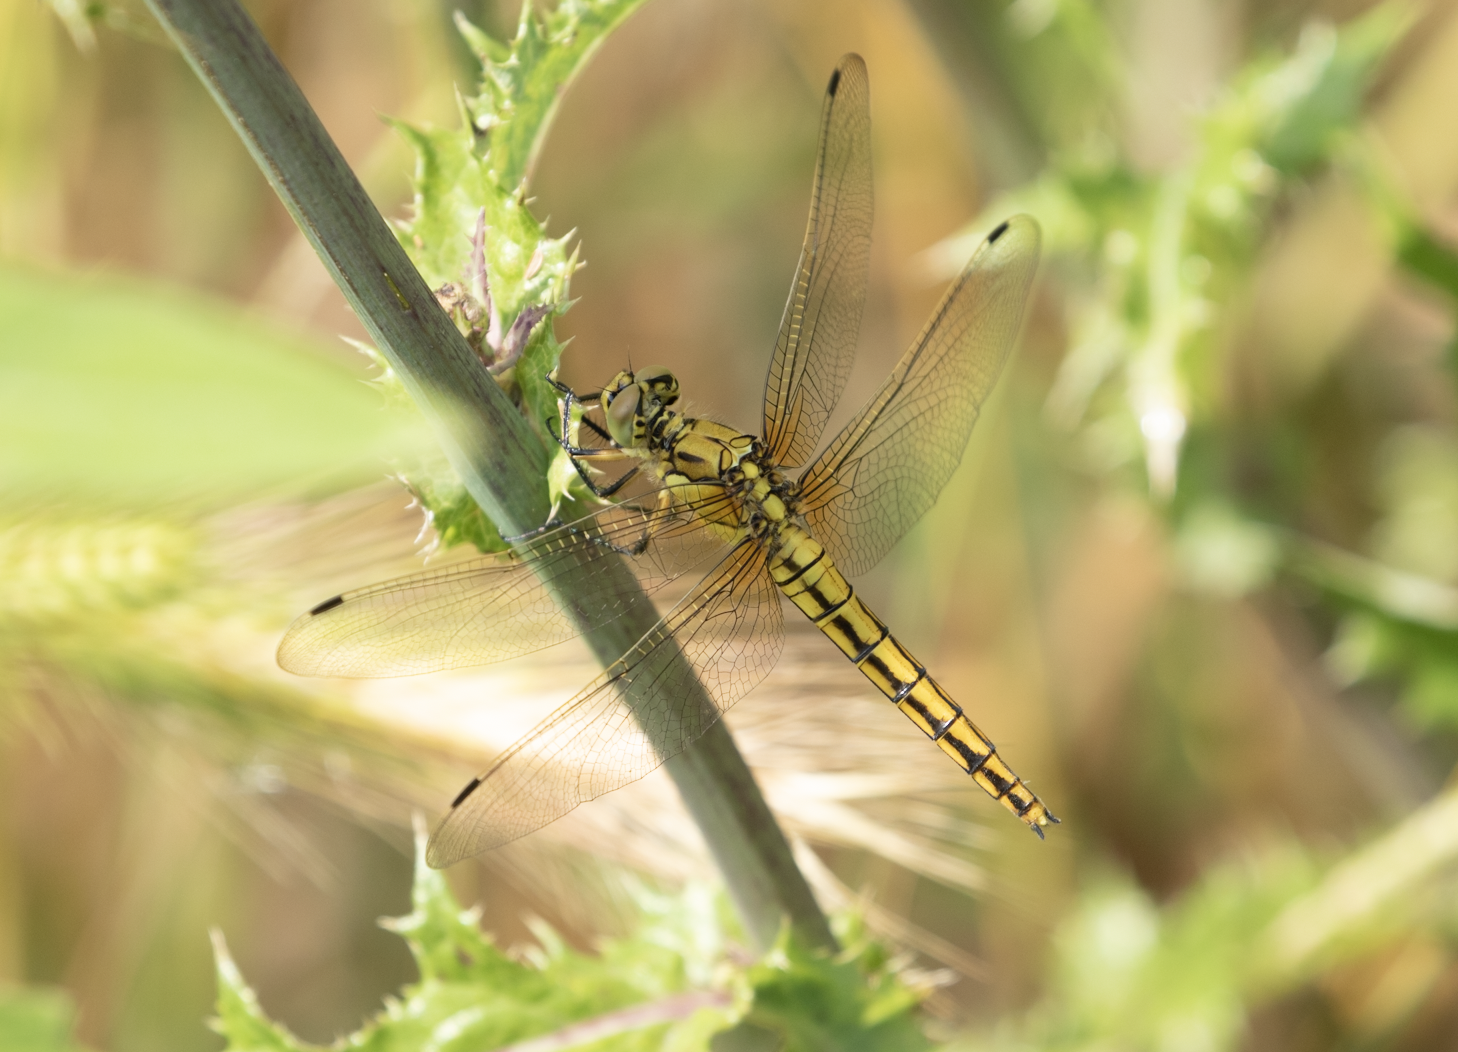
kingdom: Animalia
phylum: Arthropoda
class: Insecta
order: Odonata
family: Libellulidae
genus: Orthetrum
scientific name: Orthetrum cancellatum
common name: Black-tailed skimmer
